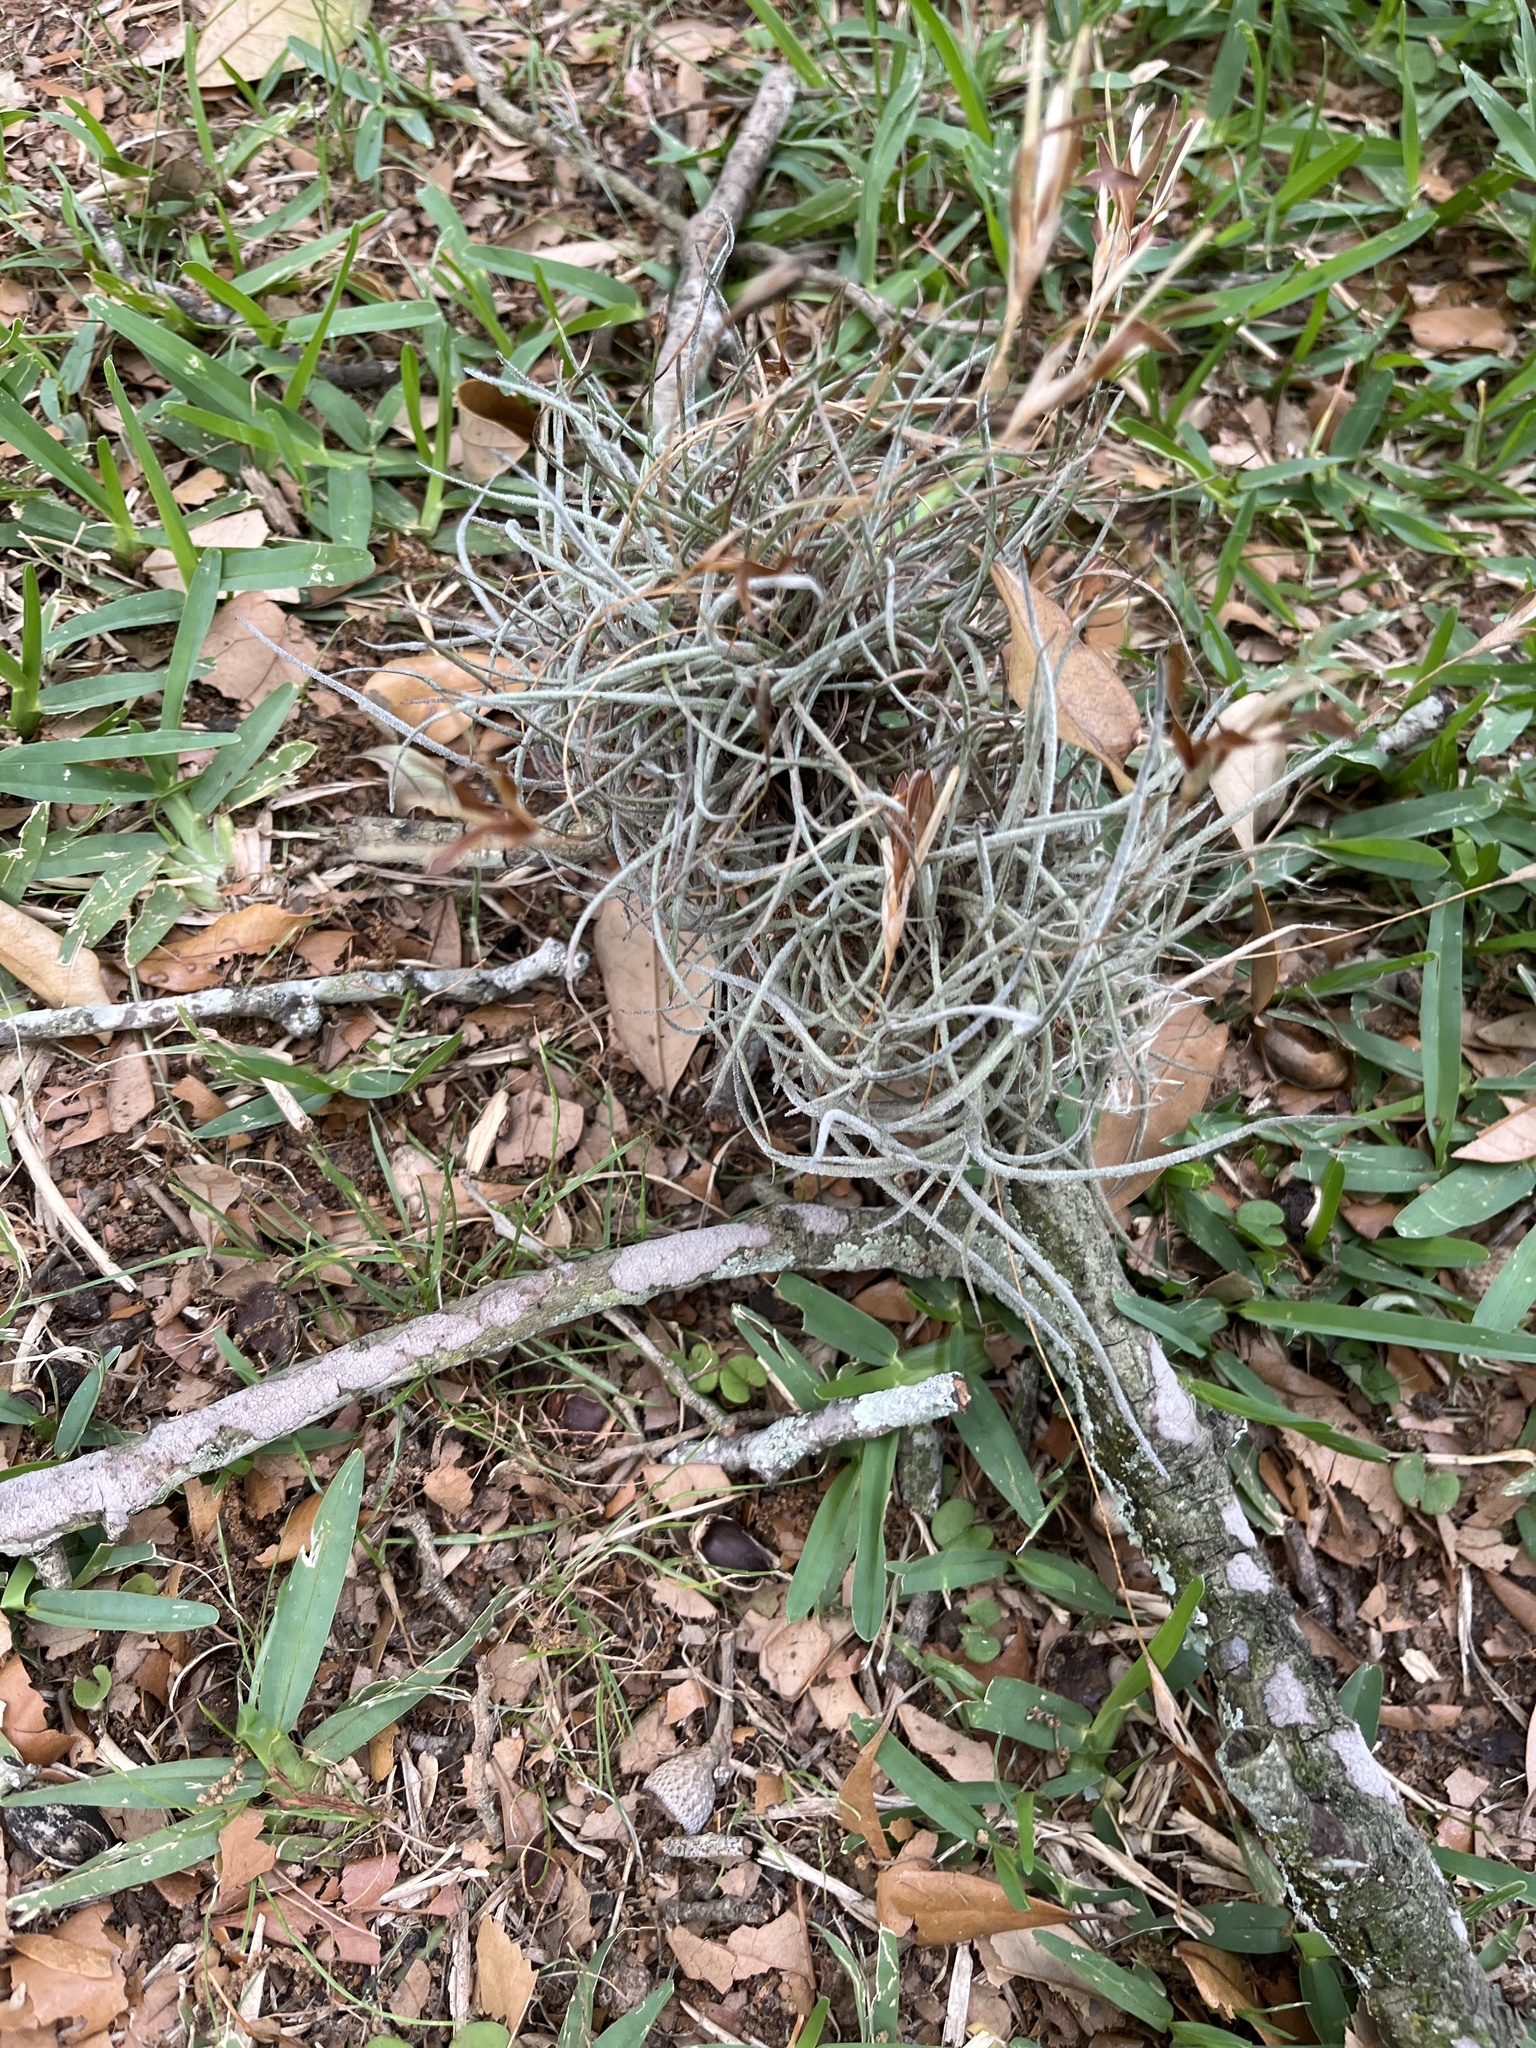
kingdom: Plantae
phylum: Tracheophyta
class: Liliopsida
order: Poales
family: Bromeliaceae
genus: Tillandsia
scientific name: Tillandsia recurvata
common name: Small ballmoss
